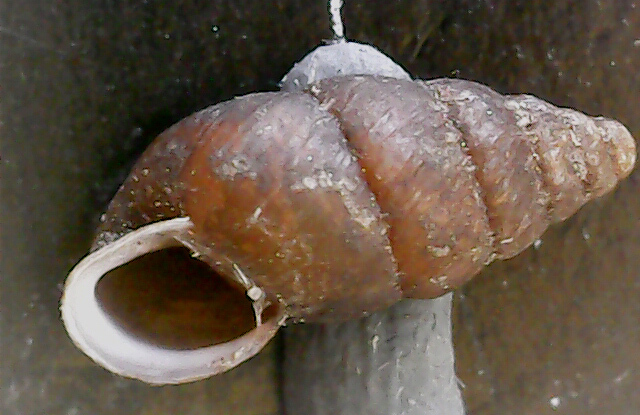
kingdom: Animalia
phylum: Mollusca
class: Gastropoda
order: Stylommatophora
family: Enidae
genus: Merdigera
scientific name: Merdigera obscura
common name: Lesser bulin
